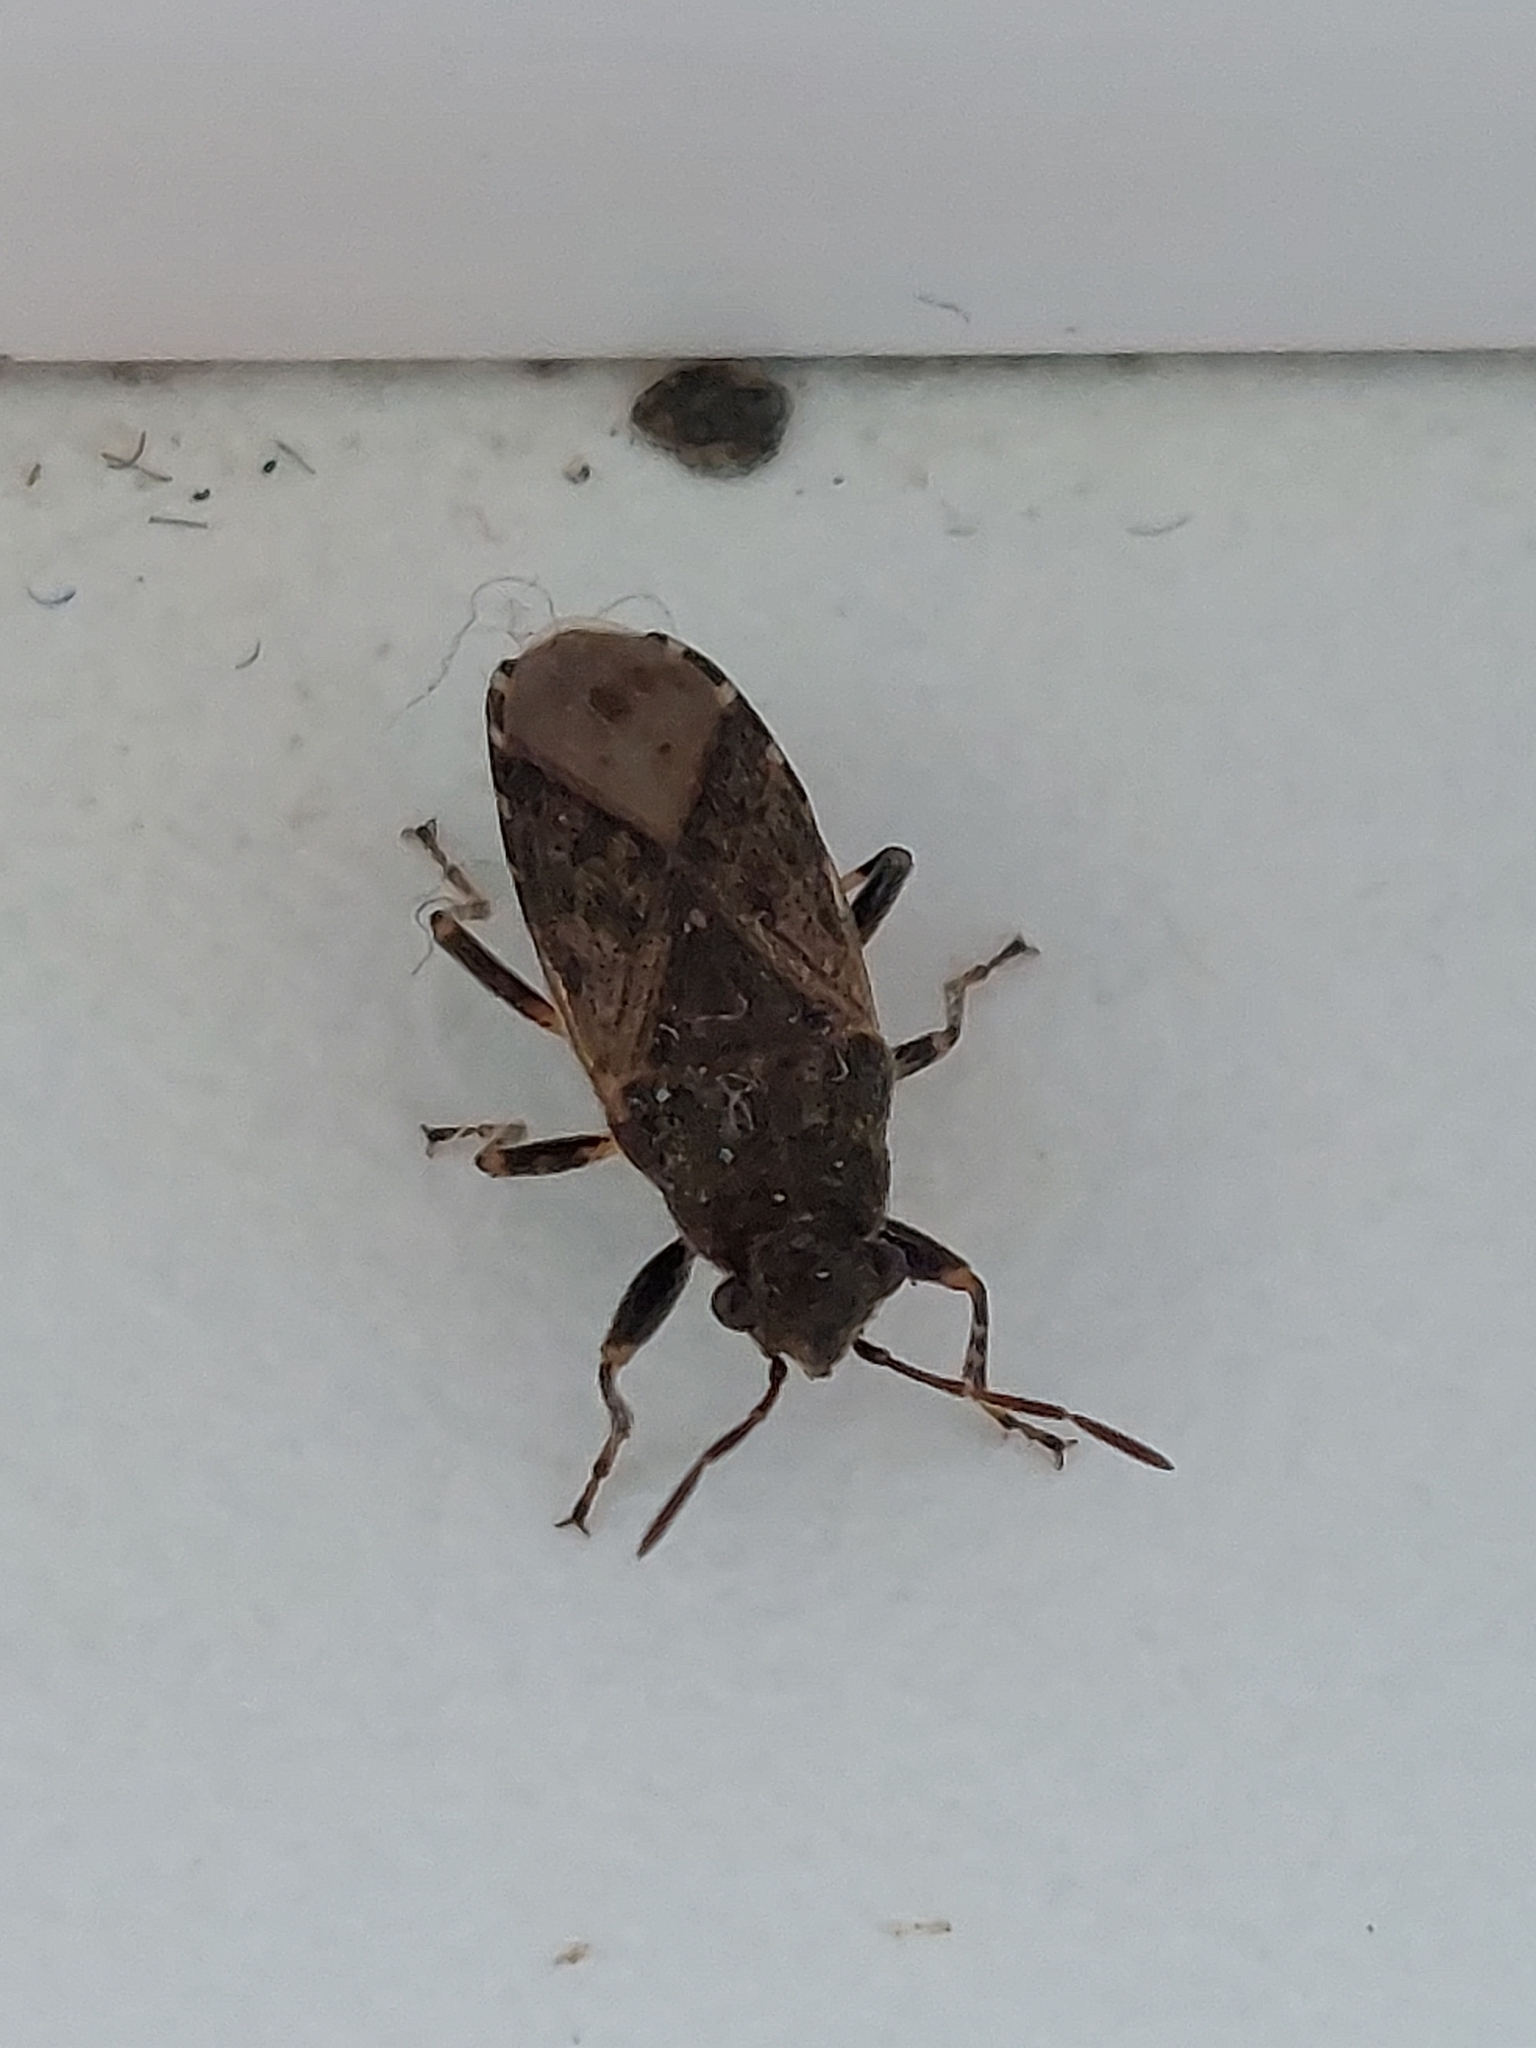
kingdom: Animalia
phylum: Arthropoda
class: Insecta
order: Hemiptera
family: Heterogastridae
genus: Heterogaster
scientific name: Heterogaster urticae
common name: Seed bug
